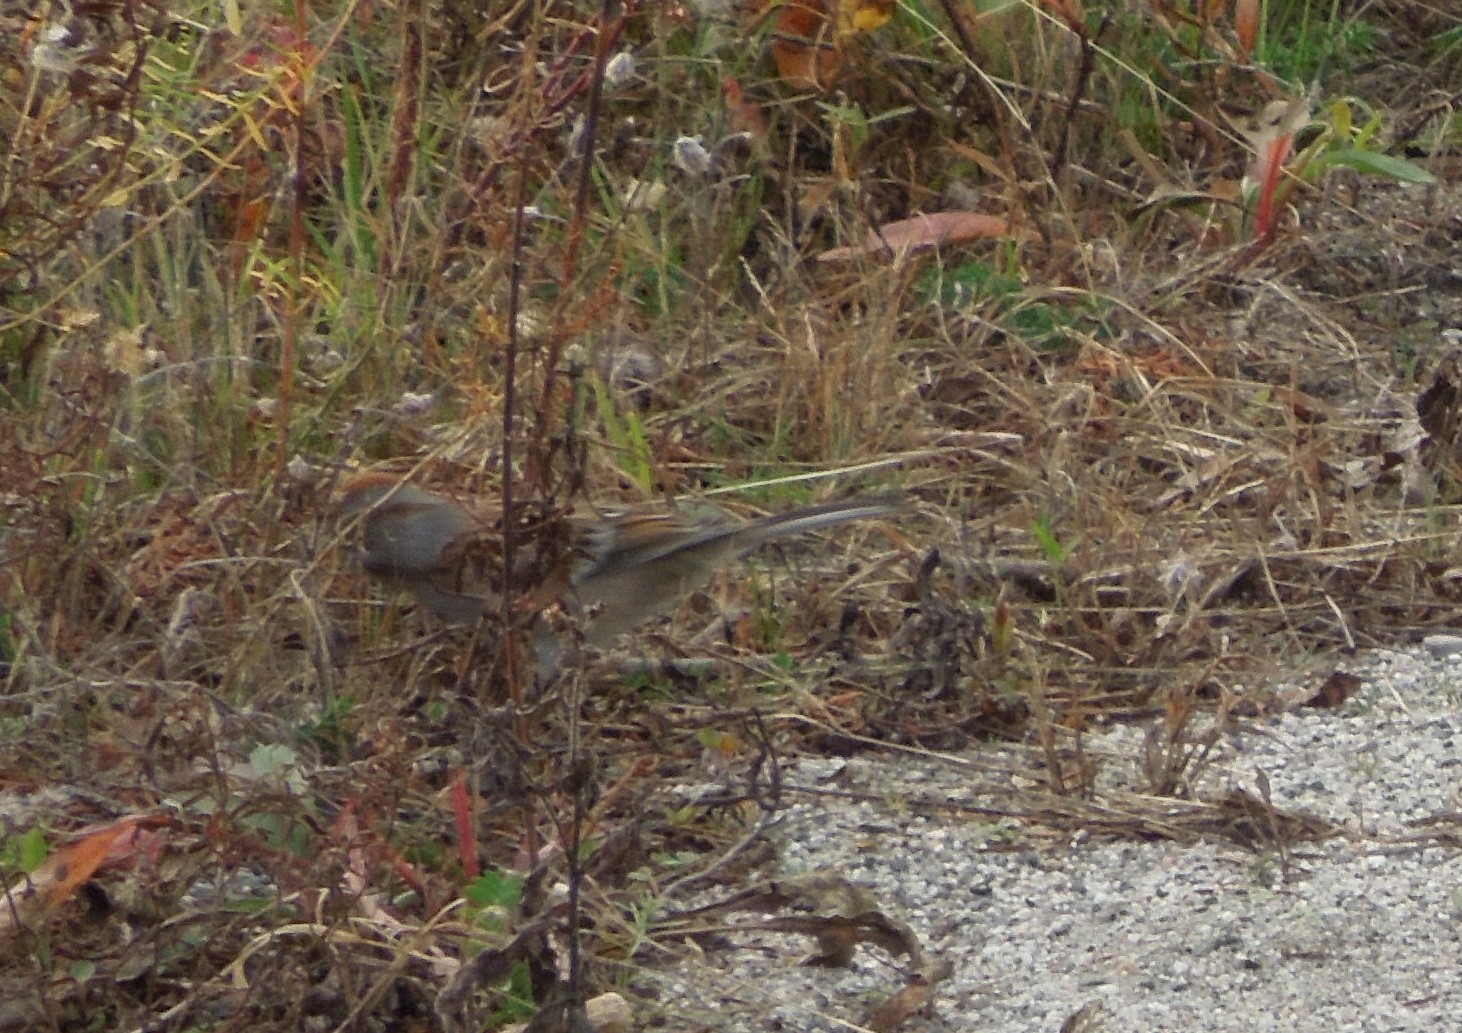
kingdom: Animalia
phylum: Chordata
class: Aves
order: Passeriformes
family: Passerellidae
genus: Spizelloides
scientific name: Spizelloides arborea
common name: American tree sparrow
